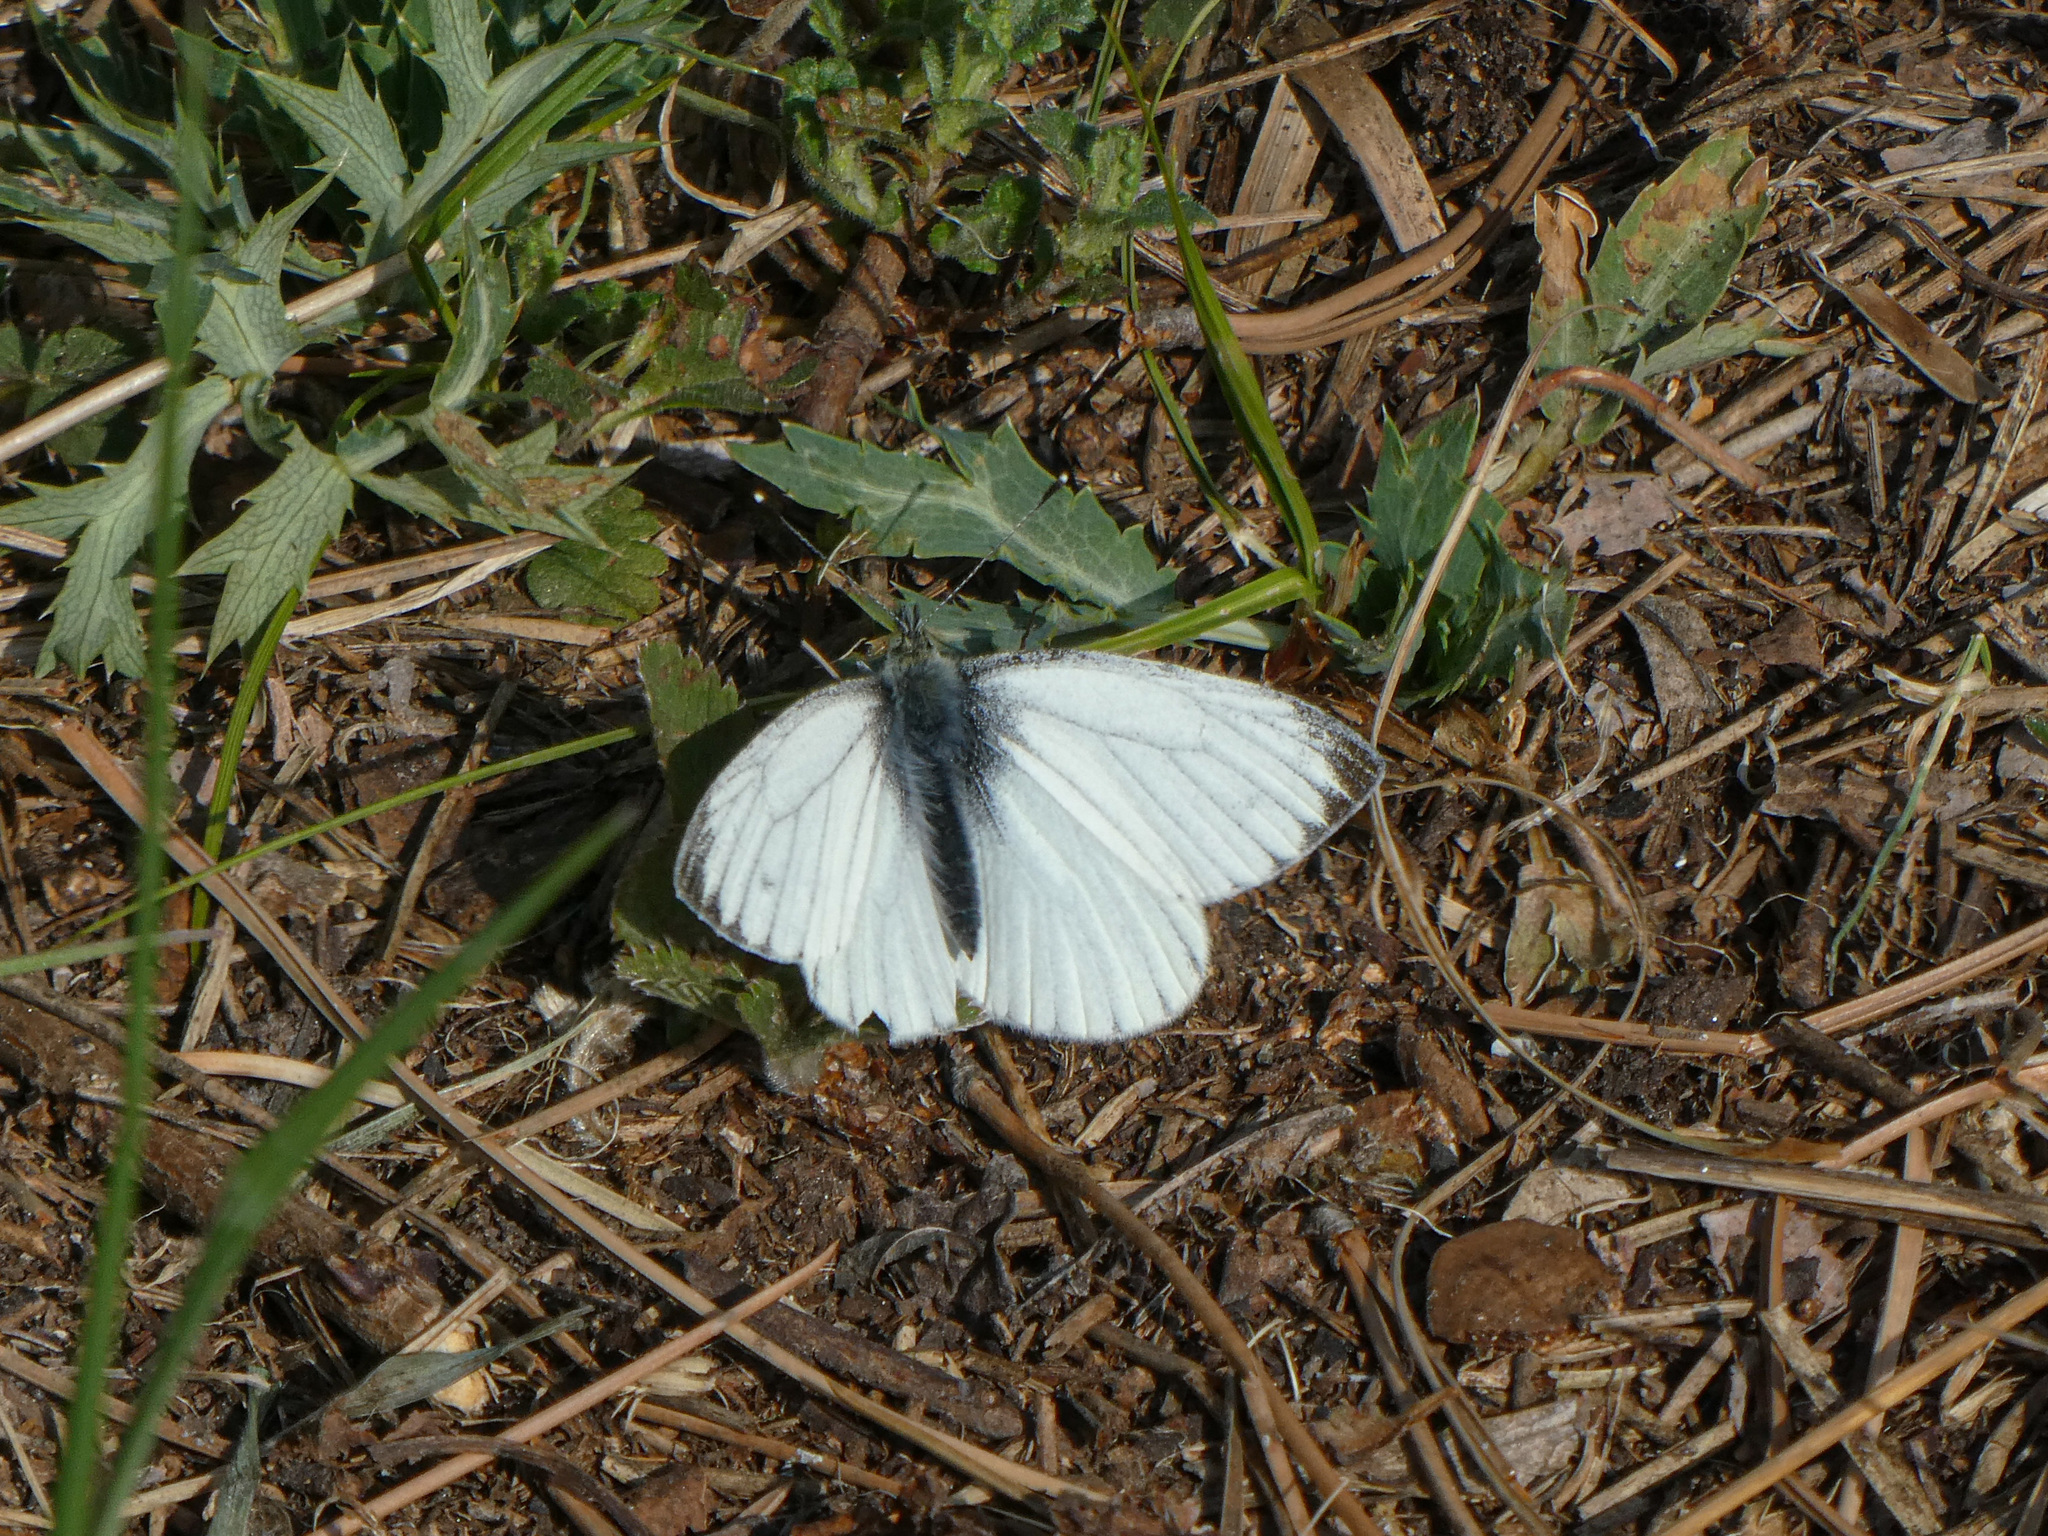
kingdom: Animalia
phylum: Arthropoda
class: Insecta
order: Lepidoptera
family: Pieridae
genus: Pieris
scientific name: Pieris napi
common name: Green-veined white
